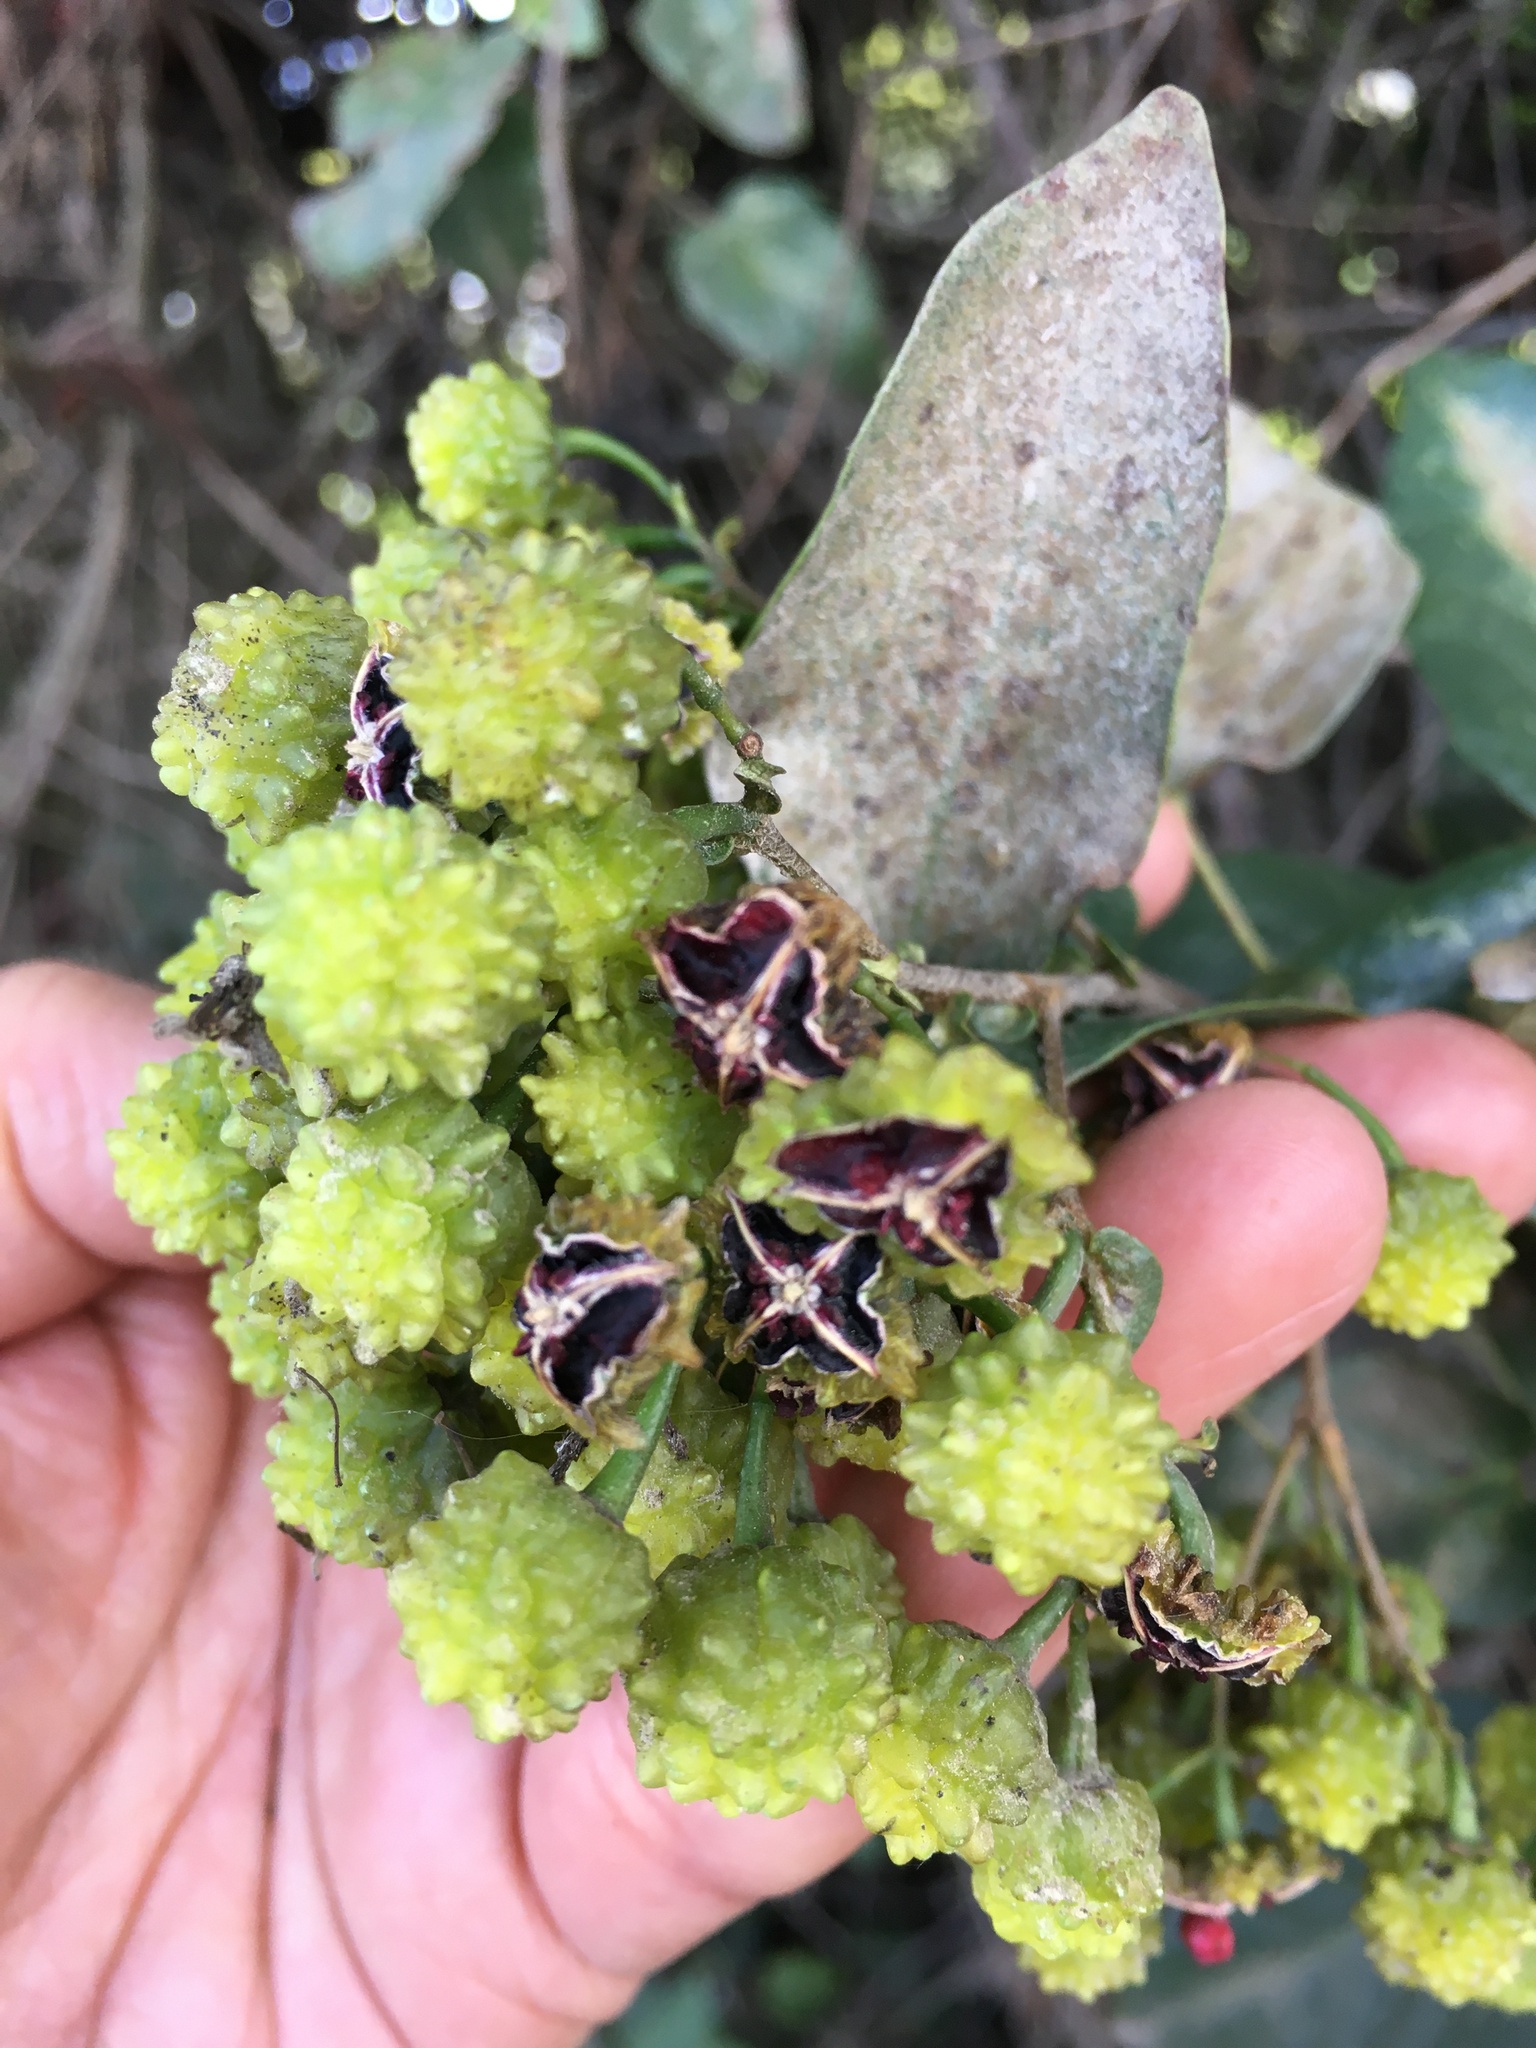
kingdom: Plantae
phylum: Tracheophyta
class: Magnoliopsida
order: Oxalidales
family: Elaeocarpaceae
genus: Vallea
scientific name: Vallea stipularis
